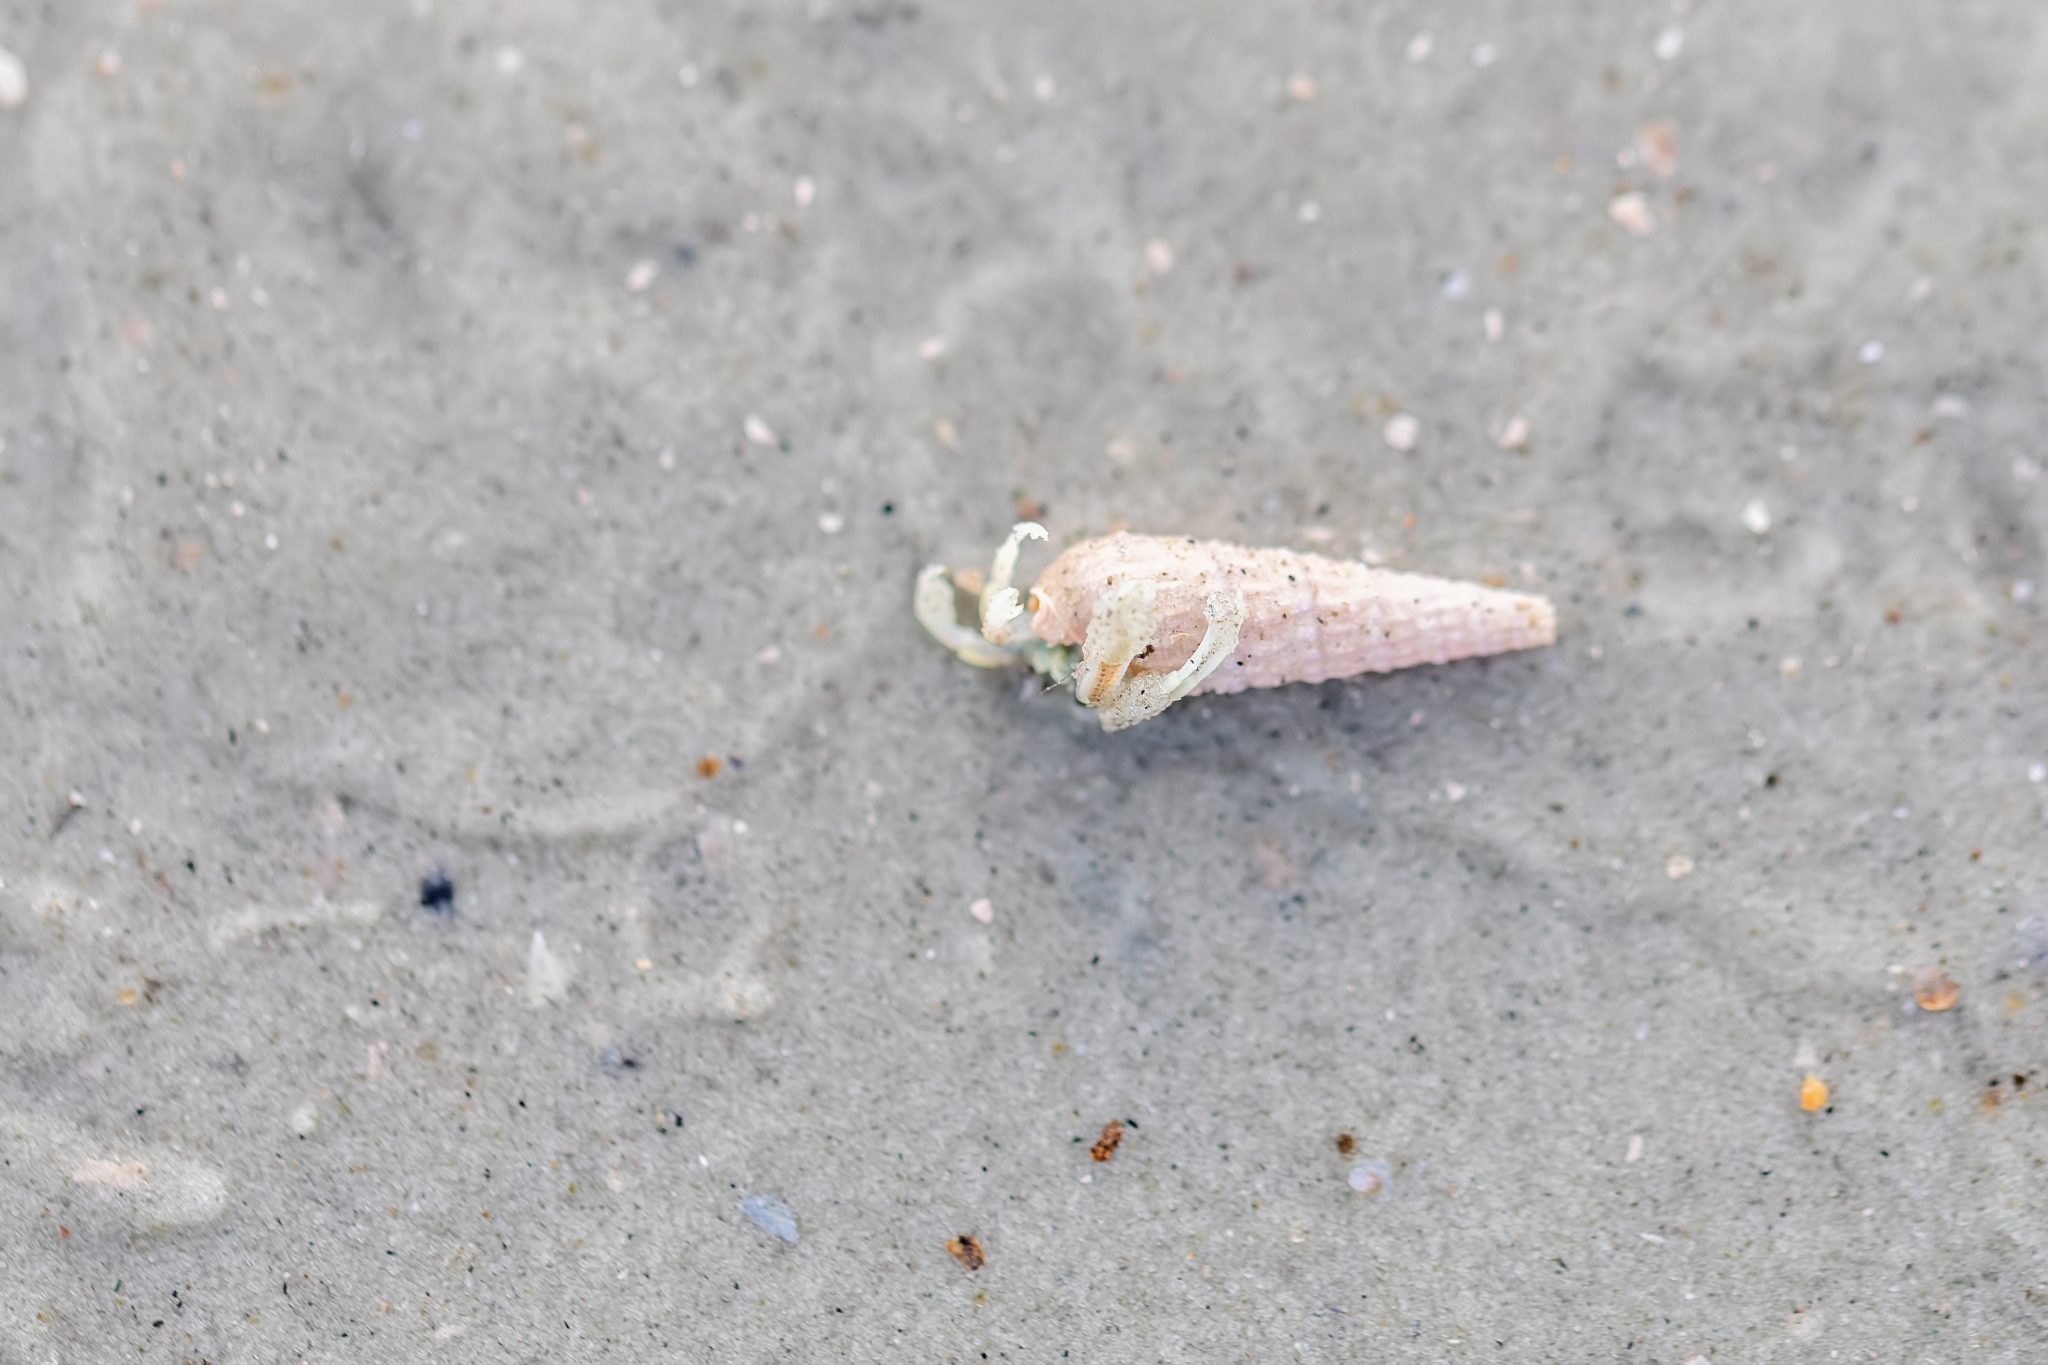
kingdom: Animalia
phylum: Arthropoda
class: Malacostraca
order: Decapoda
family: Paguridae
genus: Pagurus
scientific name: Pagurus longicarpus
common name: Long-armed hermit crab
